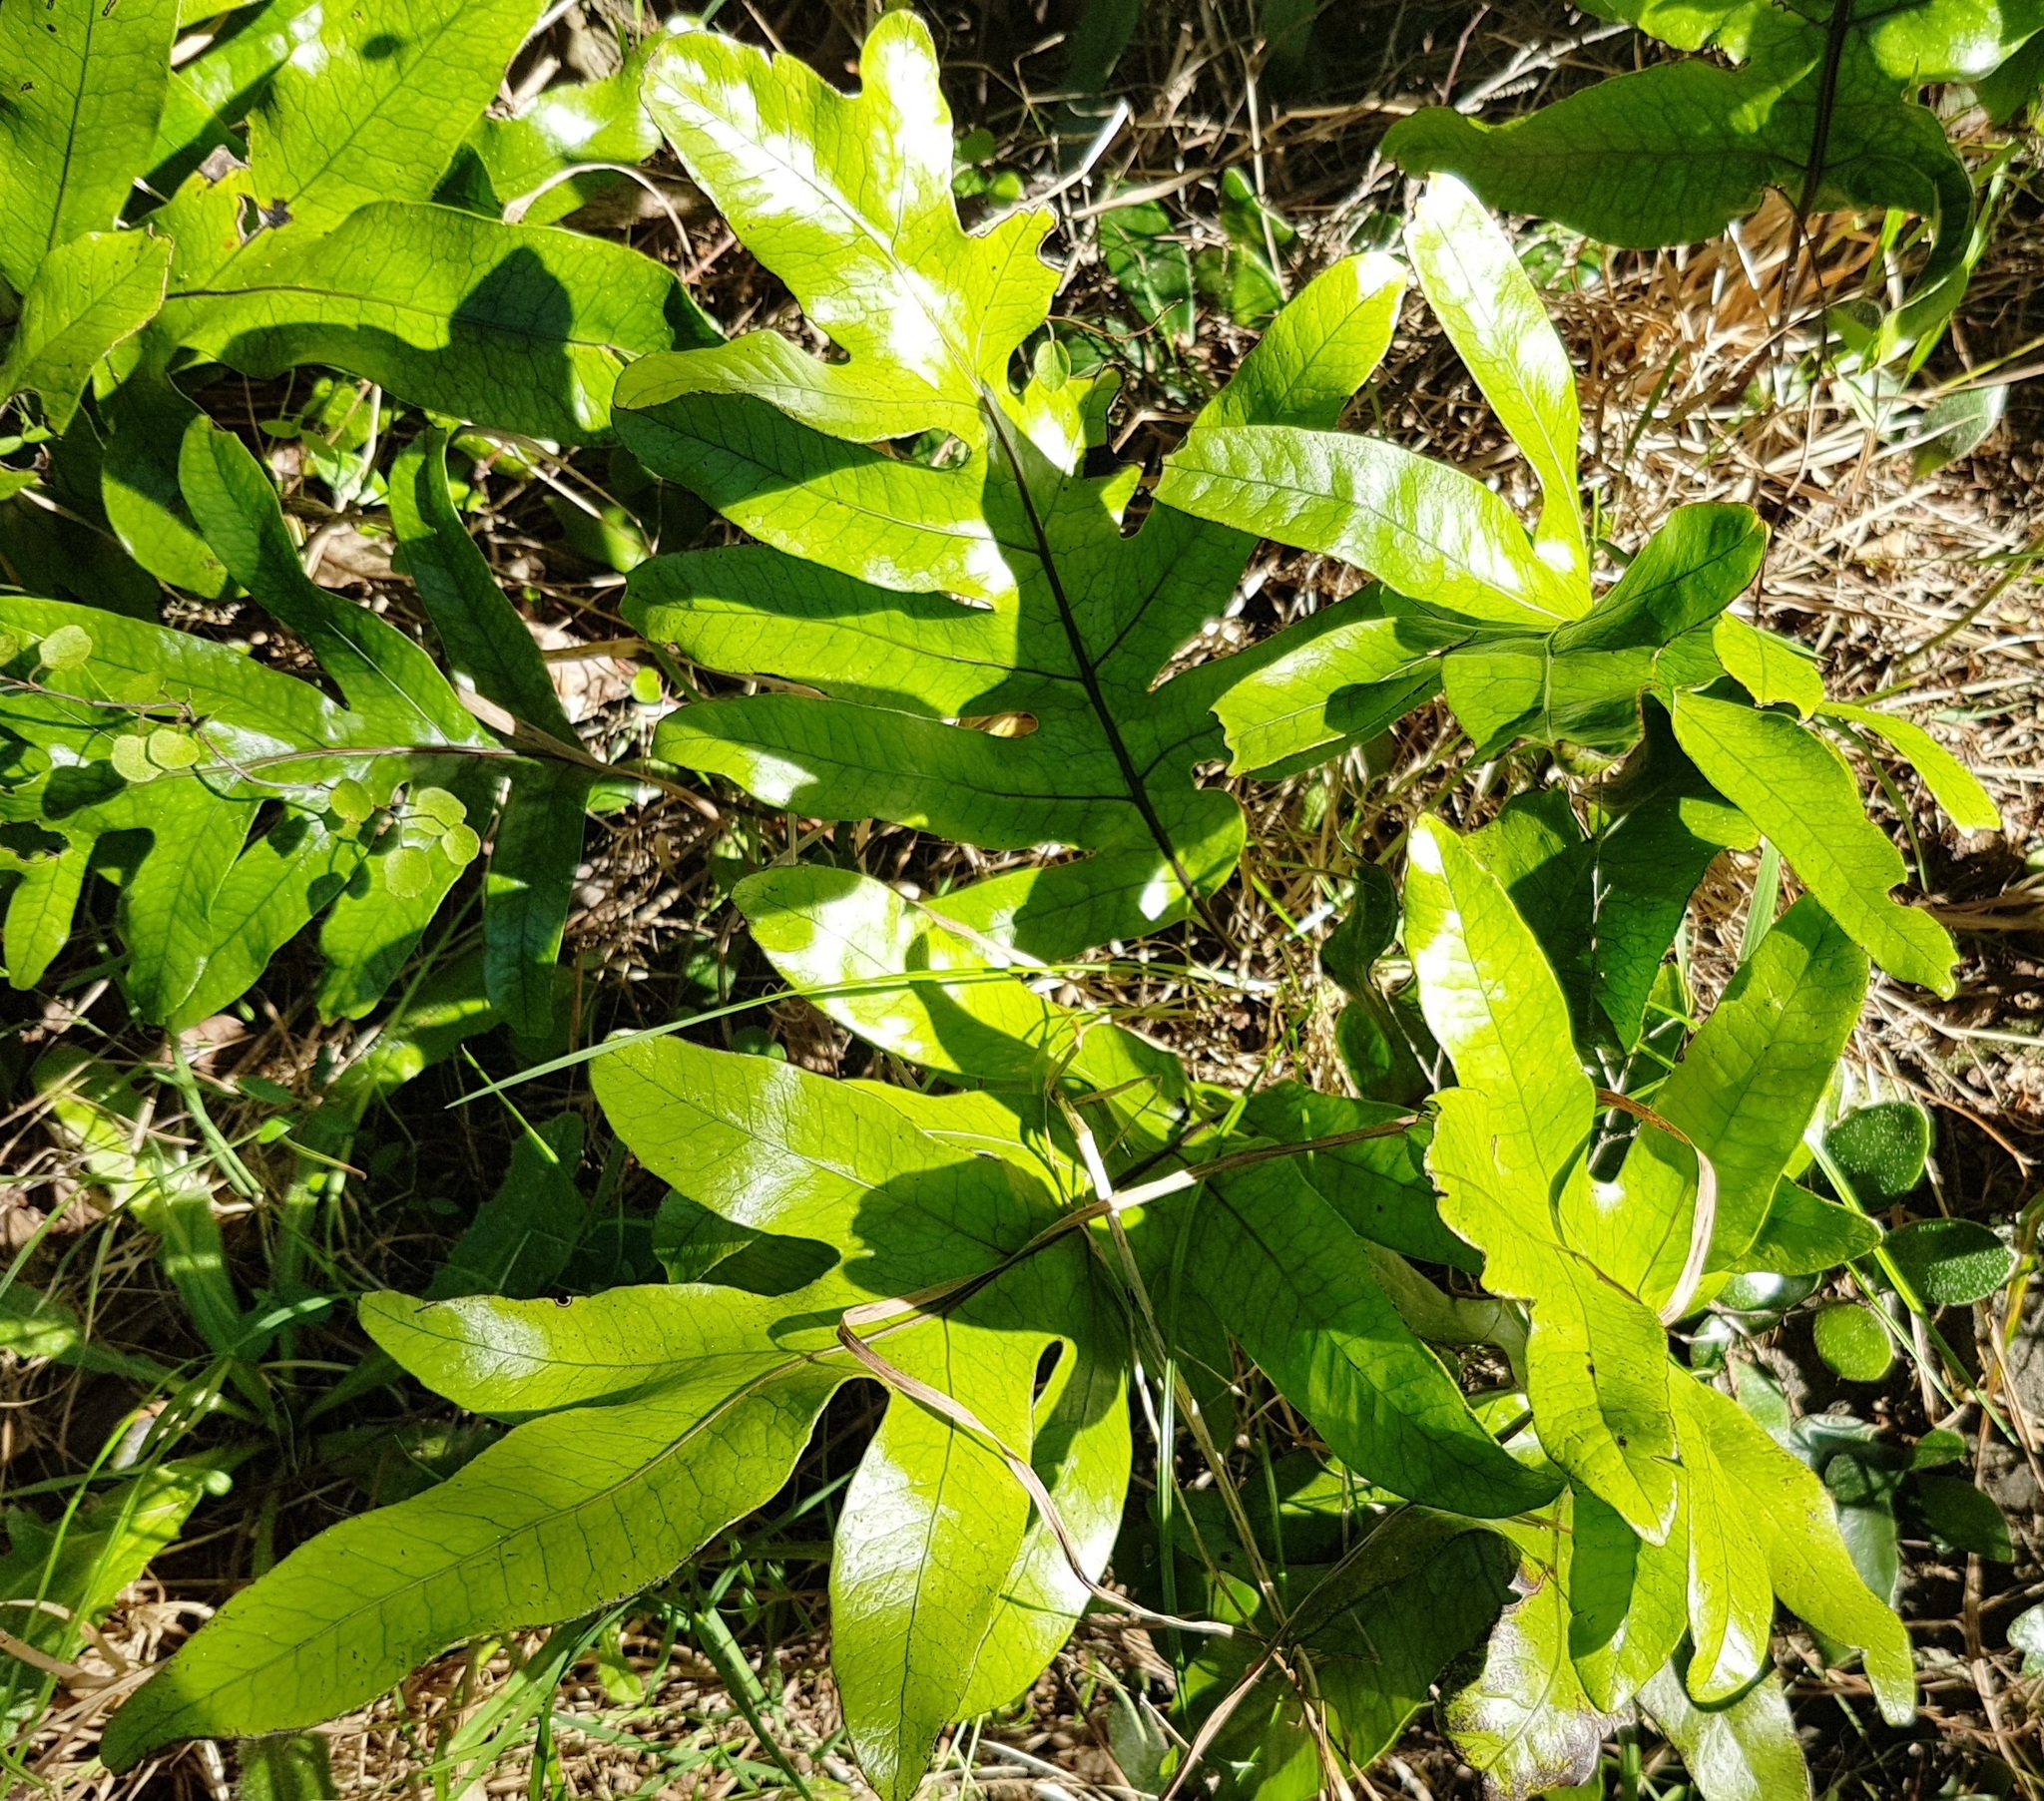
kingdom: Plantae
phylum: Tracheophyta
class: Polypodiopsida
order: Polypodiales
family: Polypodiaceae
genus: Lecanopteris
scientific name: Lecanopteris pustulata
